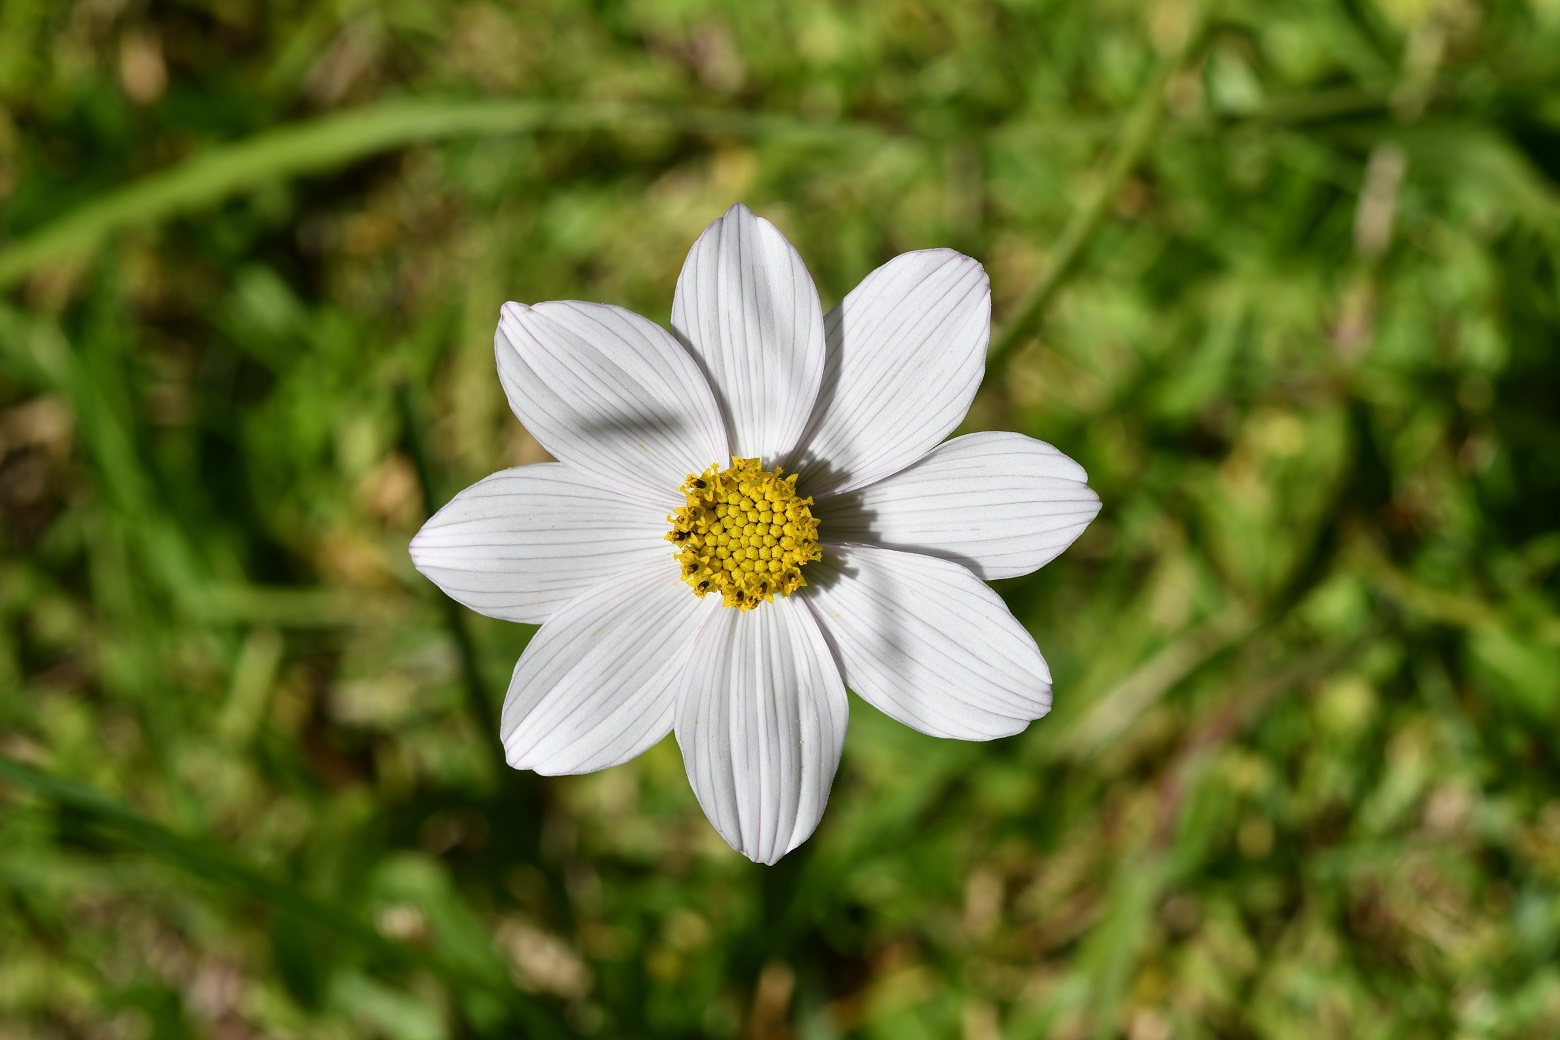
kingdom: Plantae
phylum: Tracheophyta
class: Magnoliopsida
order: Asterales
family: Asteraceae
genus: Cosmos
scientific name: Cosmos diversifolius
